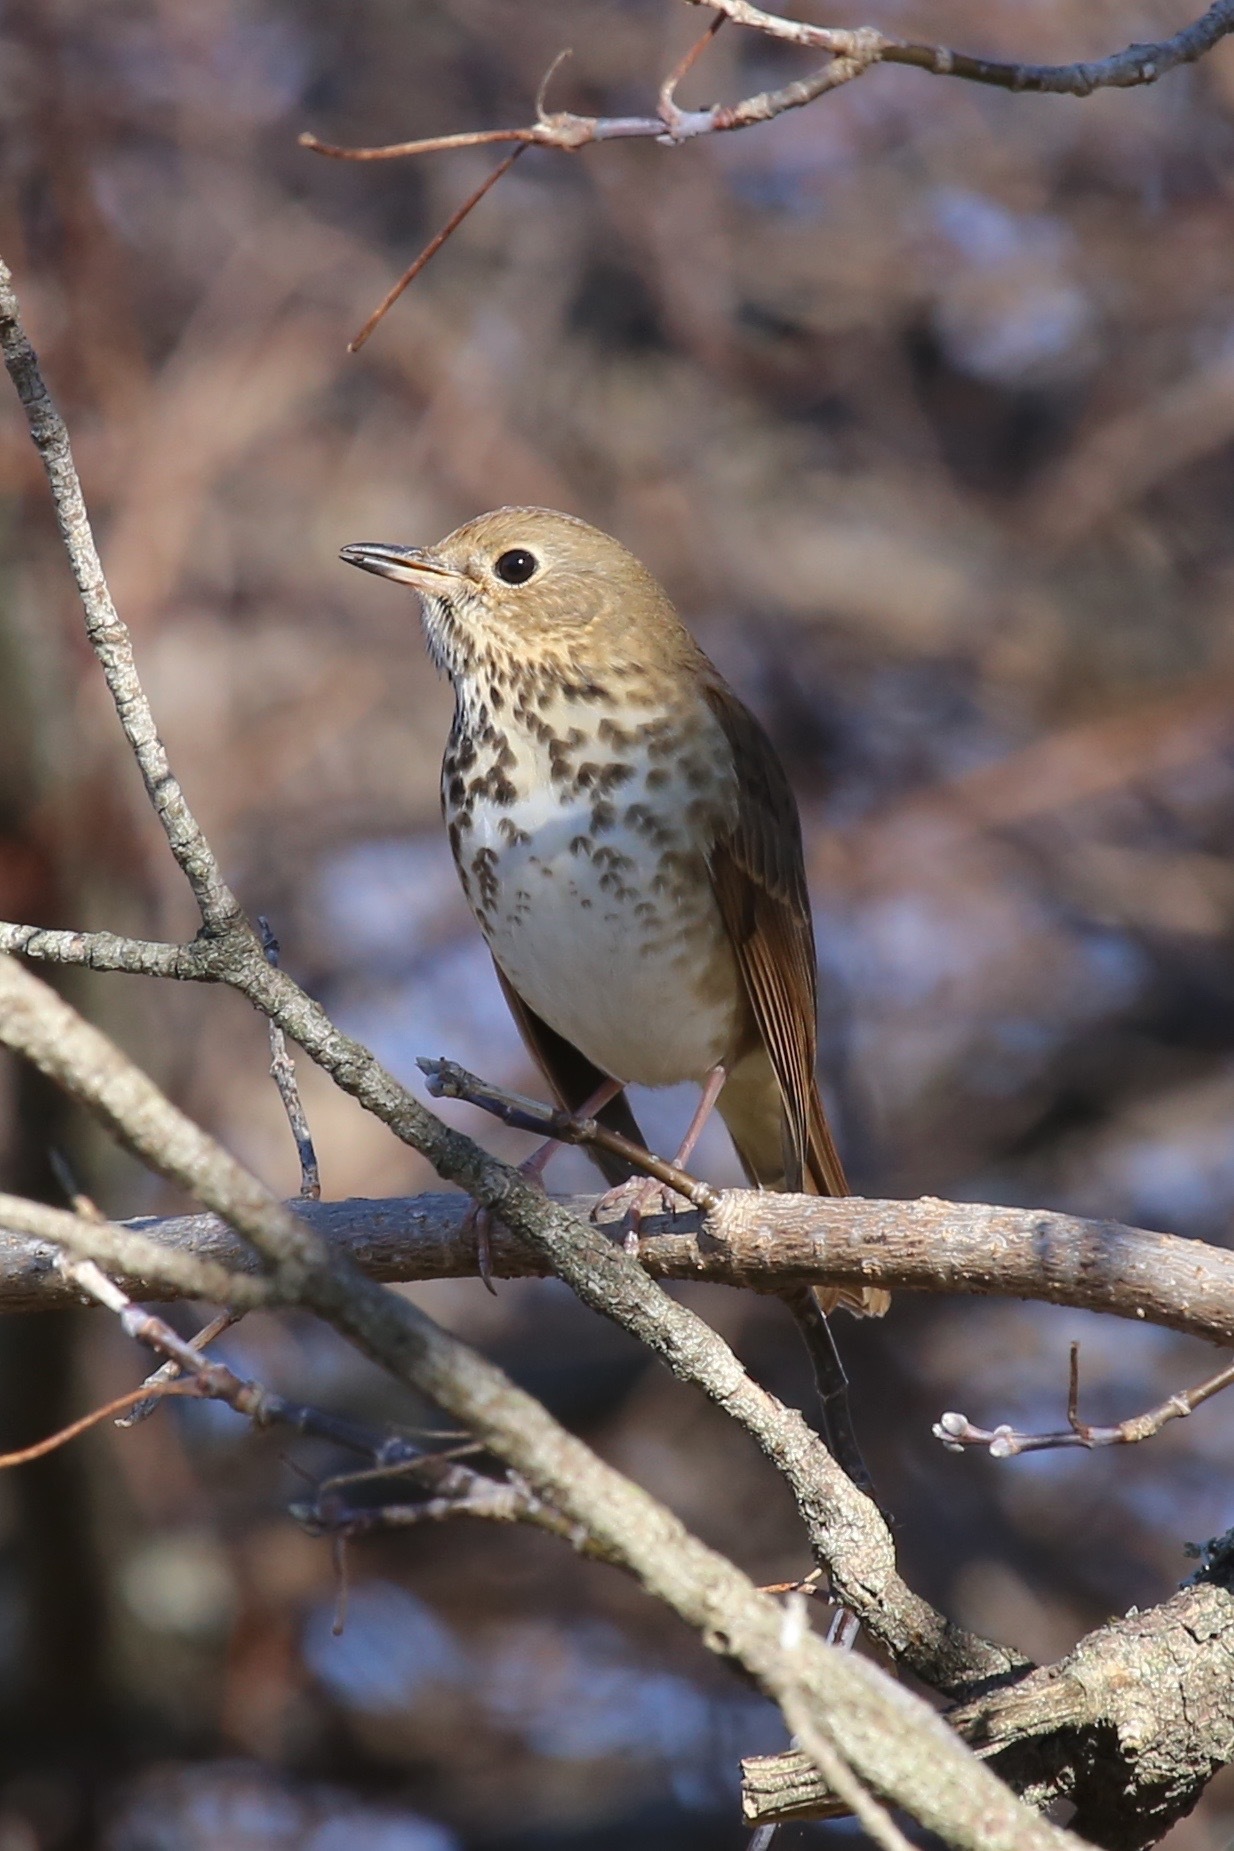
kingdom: Animalia
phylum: Chordata
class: Aves
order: Passeriformes
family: Turdidae
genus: Catharus
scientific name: Catharus guttatus
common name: Hermit thrush
